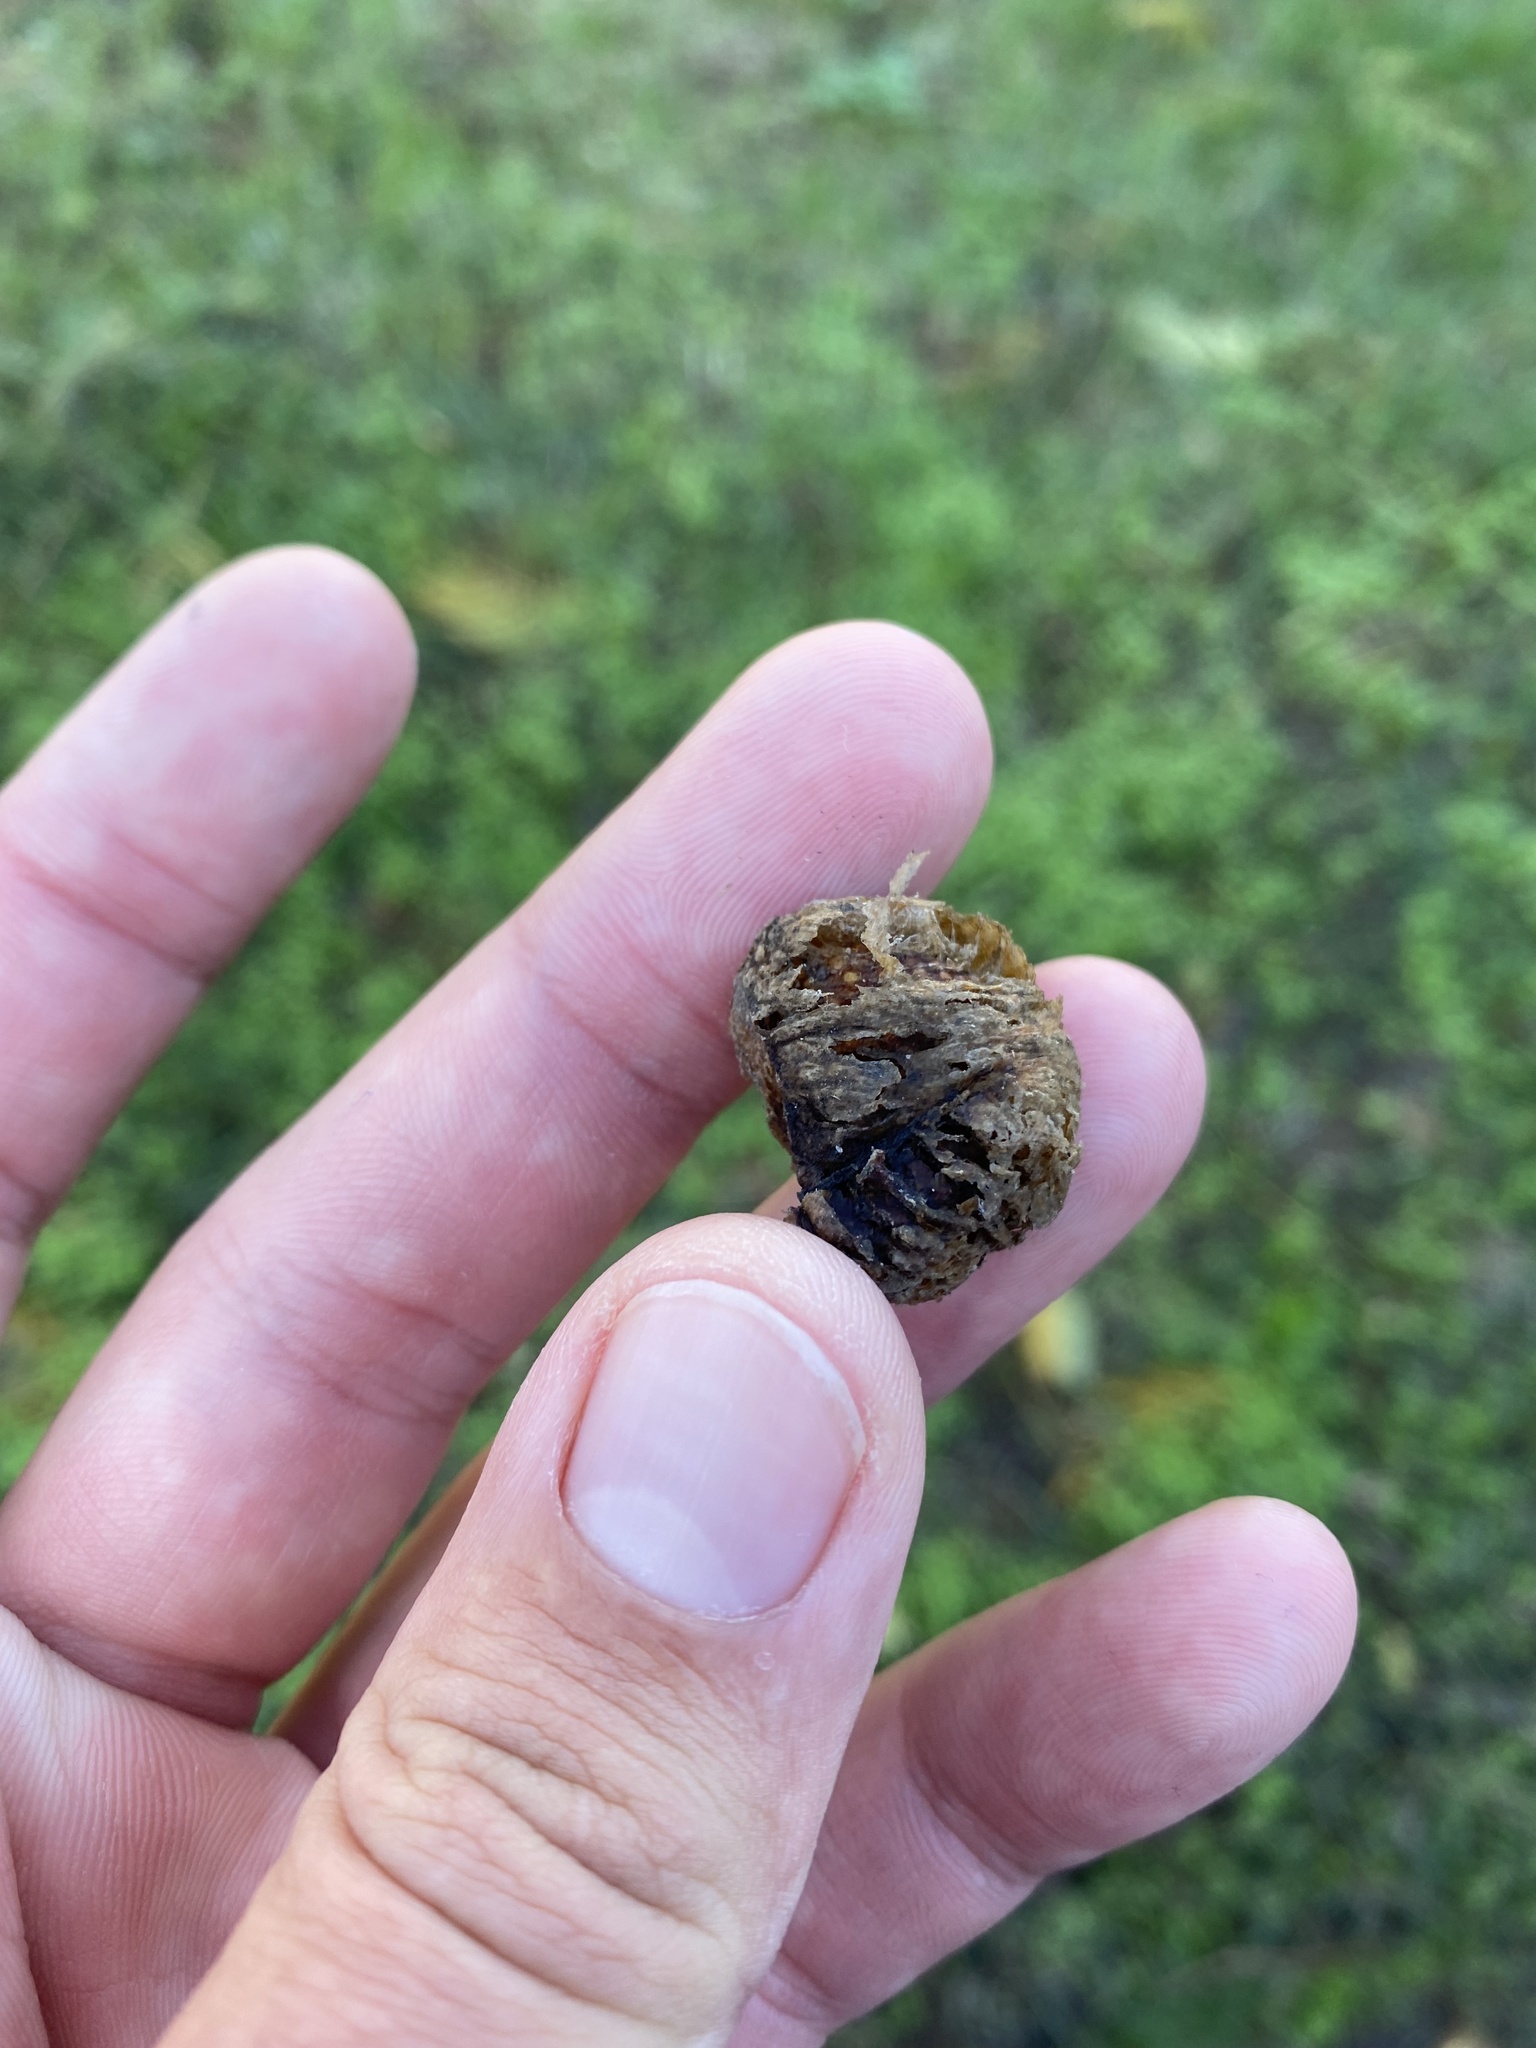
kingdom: Animalia
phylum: Arthropoda
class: Insecta
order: Mantodea
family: Mantidae
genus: Hierodula
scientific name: Hierodula transcaucasica
